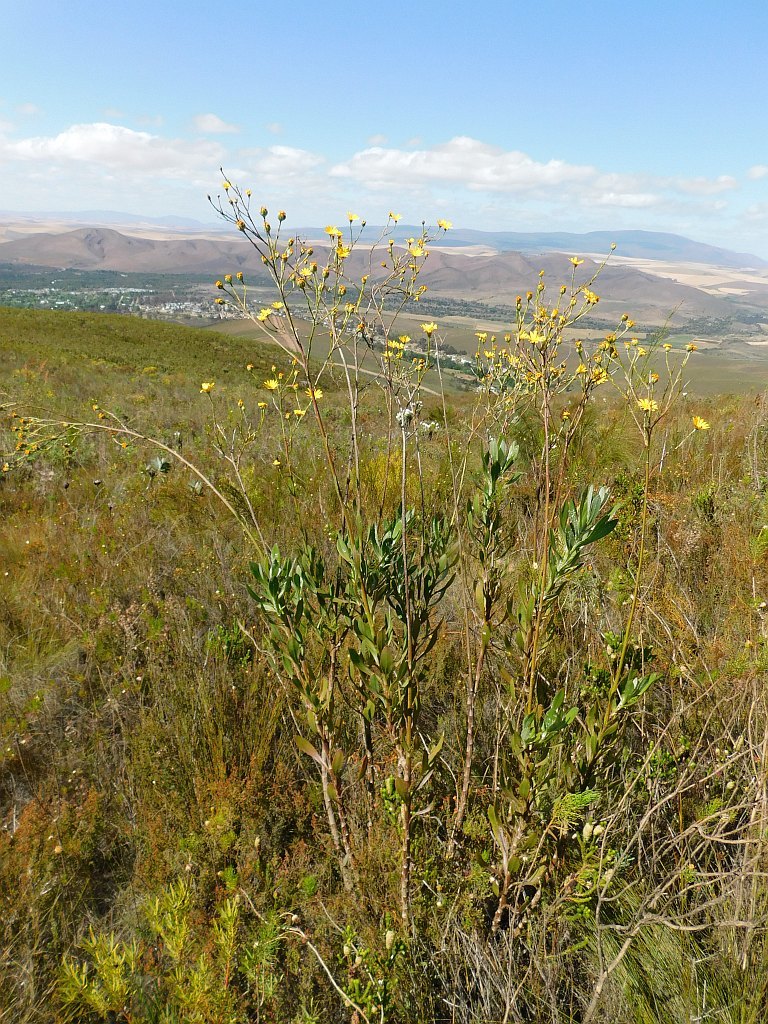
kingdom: Plantae
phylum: Tracheophyta
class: Magnoliopsida
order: Asterales
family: Asteraceae
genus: Osteospermum
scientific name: Osteospermum junceum
